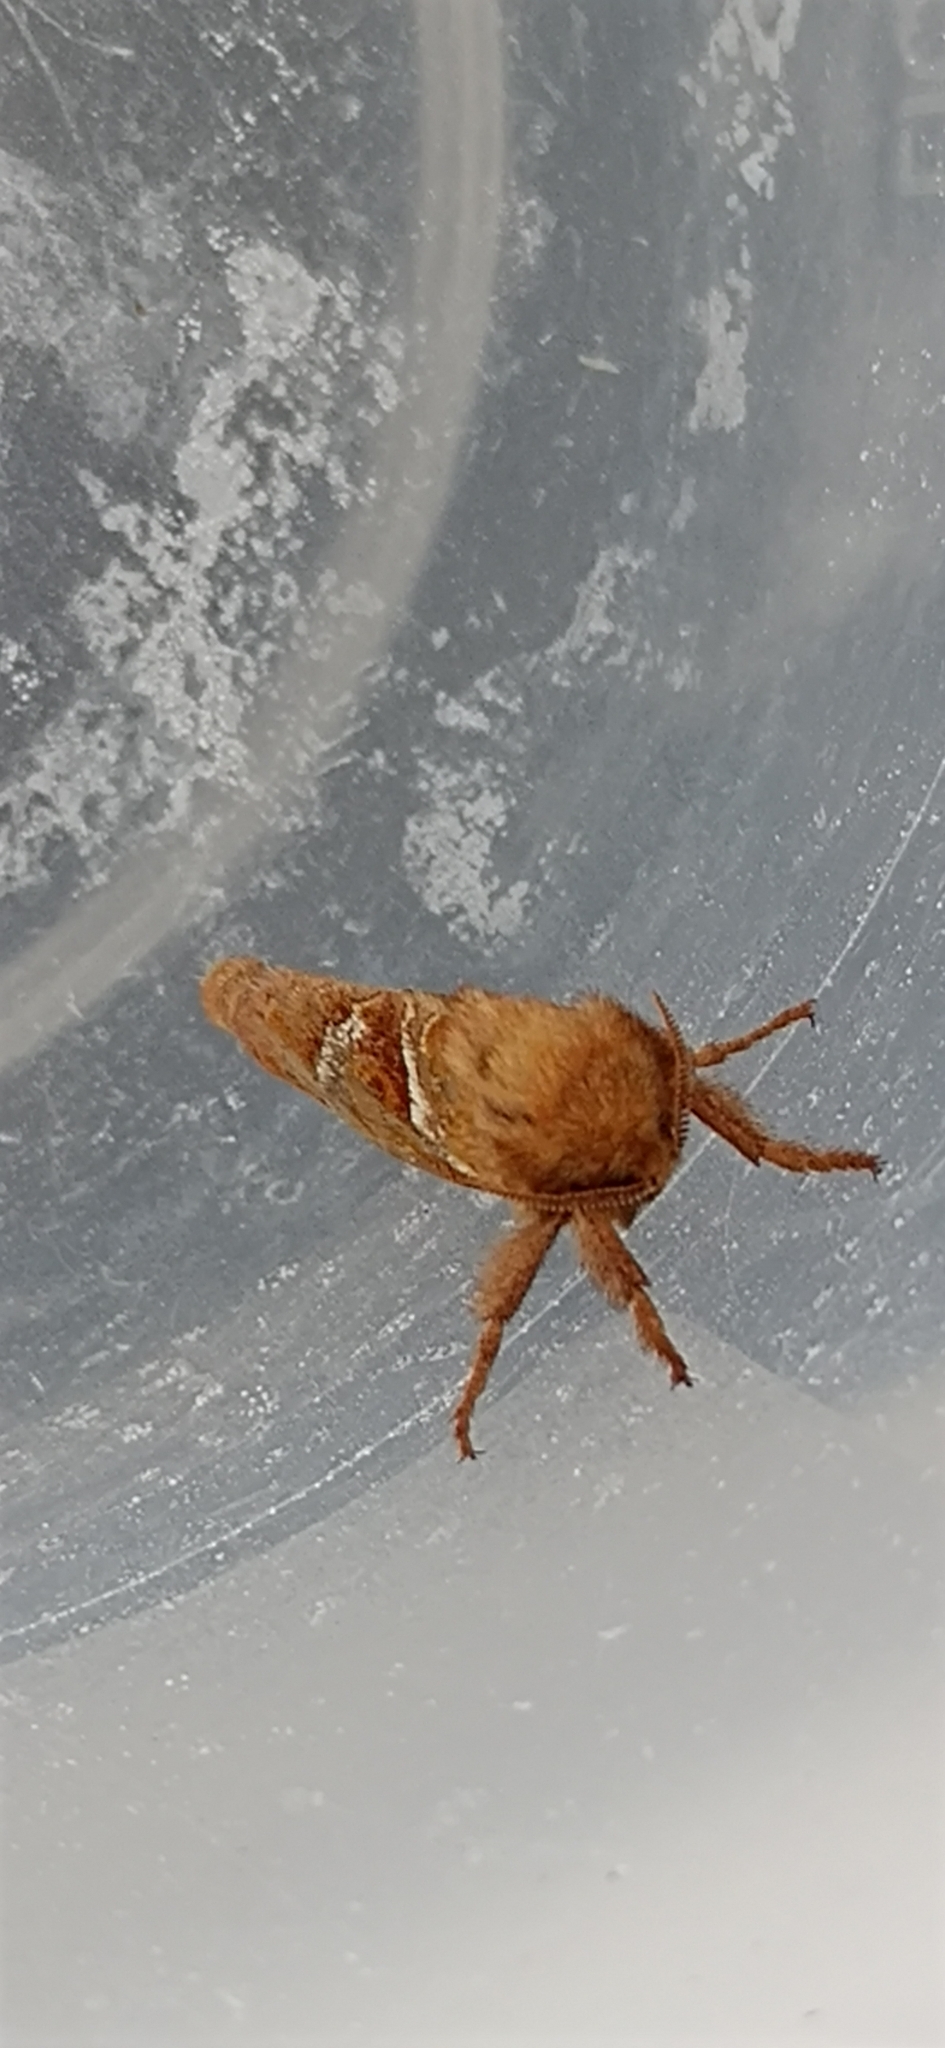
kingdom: Animalia
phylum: Arthropoda
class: Insecta
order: Lepidoptera
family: Hepialidae
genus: Triodia
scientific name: Triodia sylvina
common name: Orange swift
